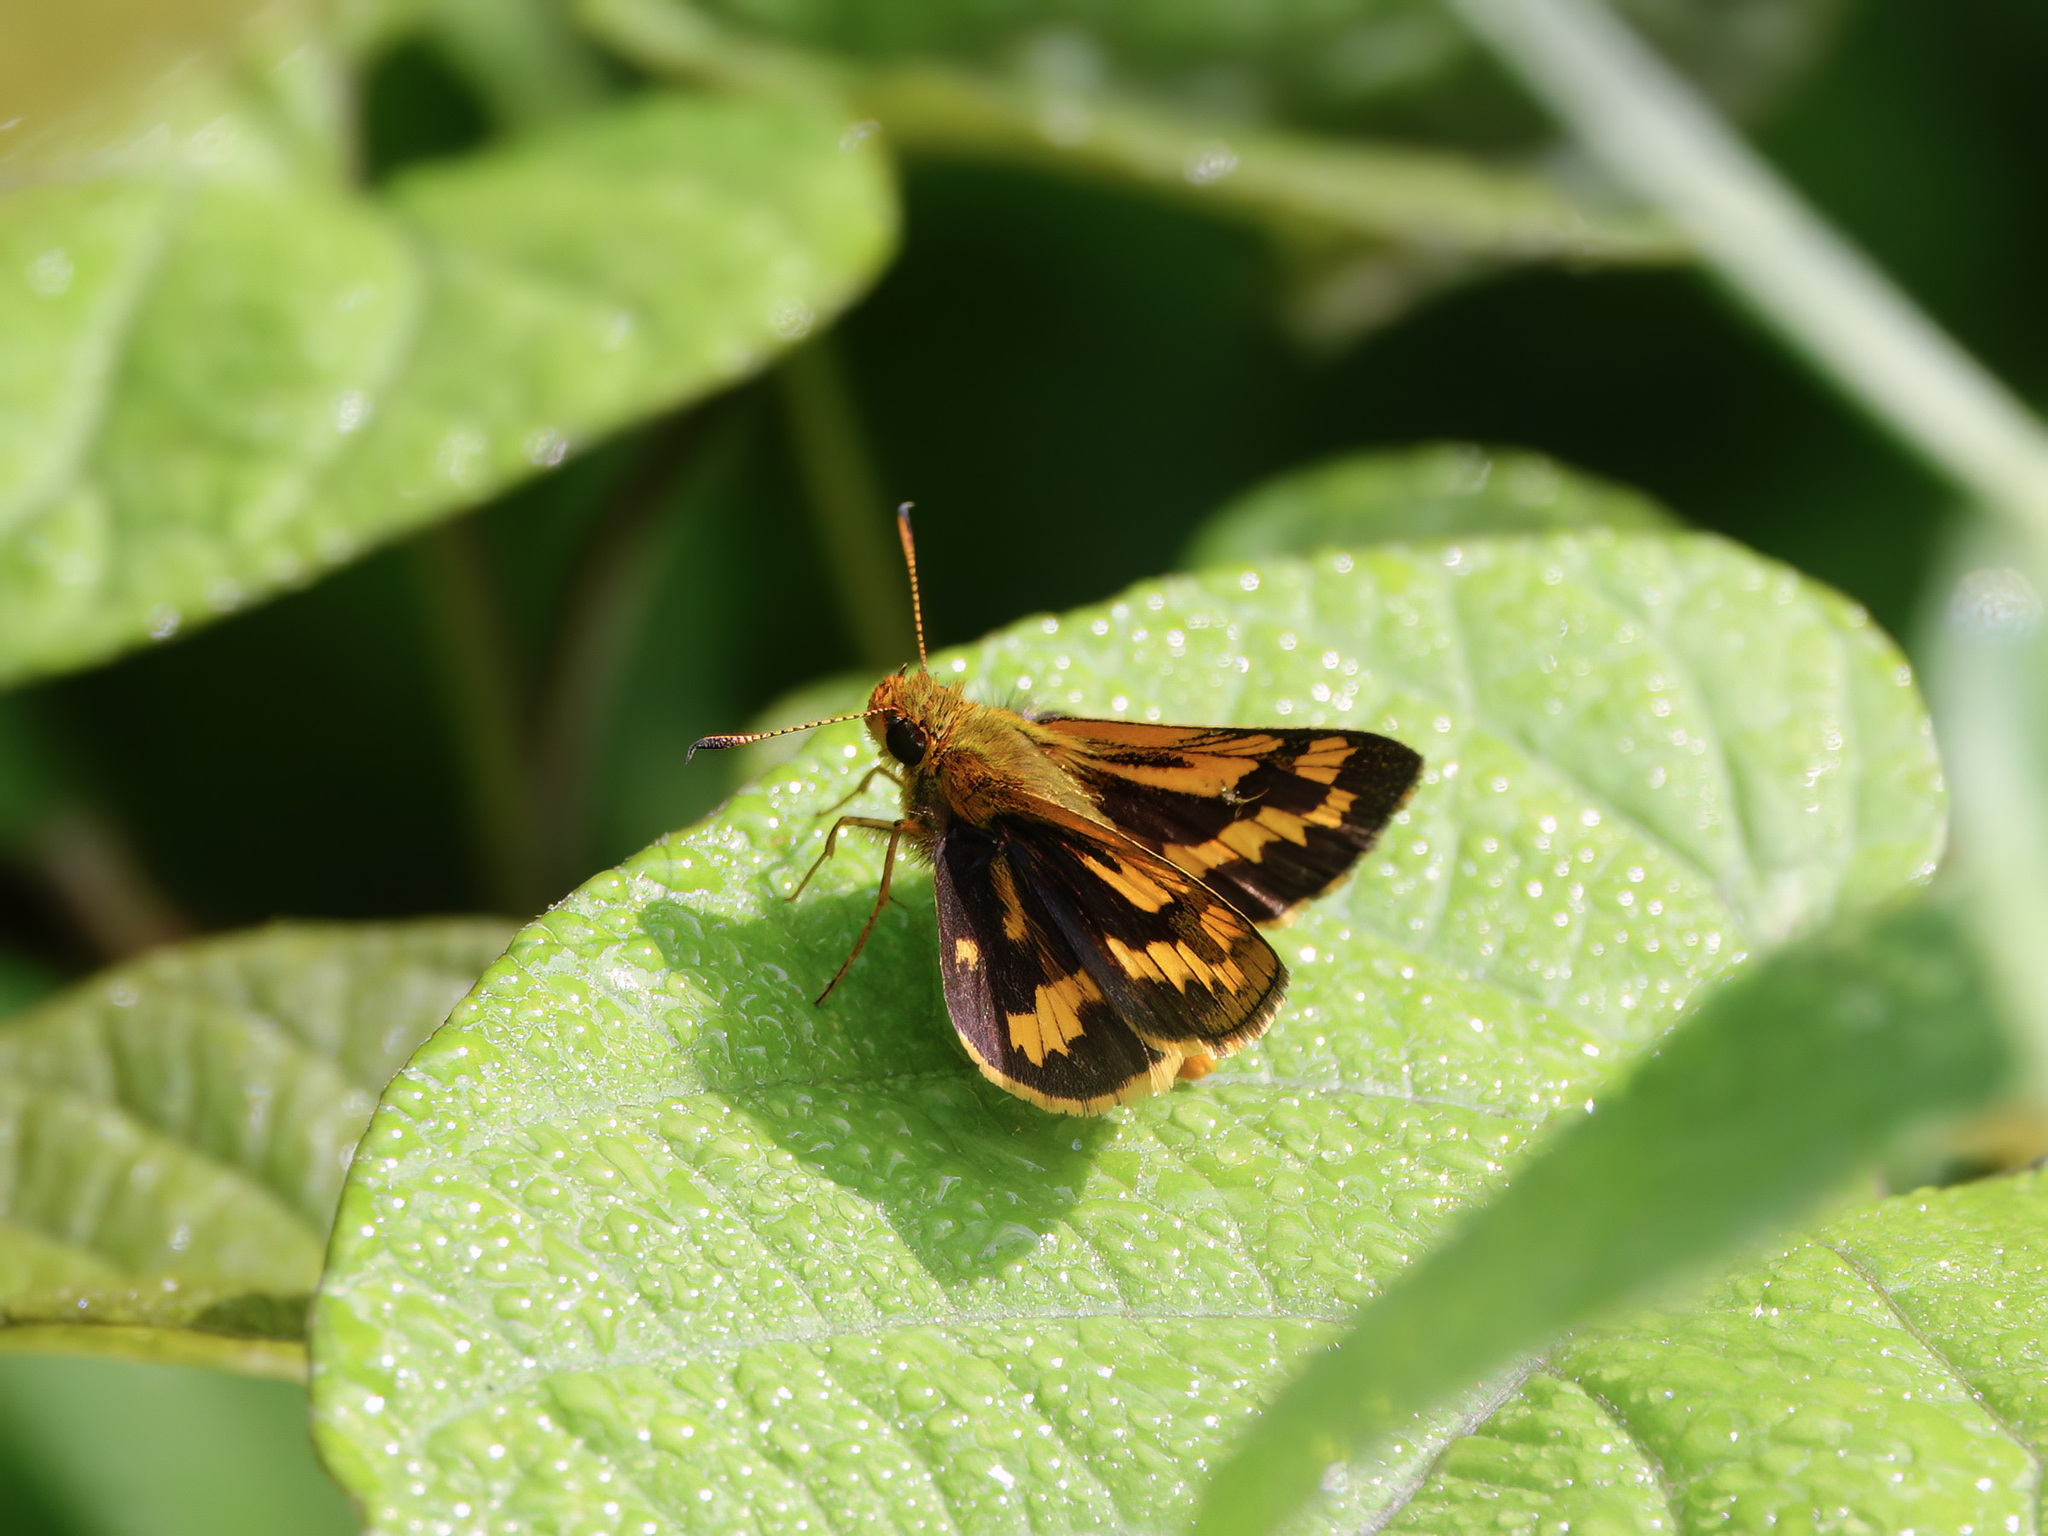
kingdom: Animalia
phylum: Arthropoda
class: Insecta
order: Lepidoptera
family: Hesperiidae
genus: Potanthus
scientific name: Potanthus omaha
